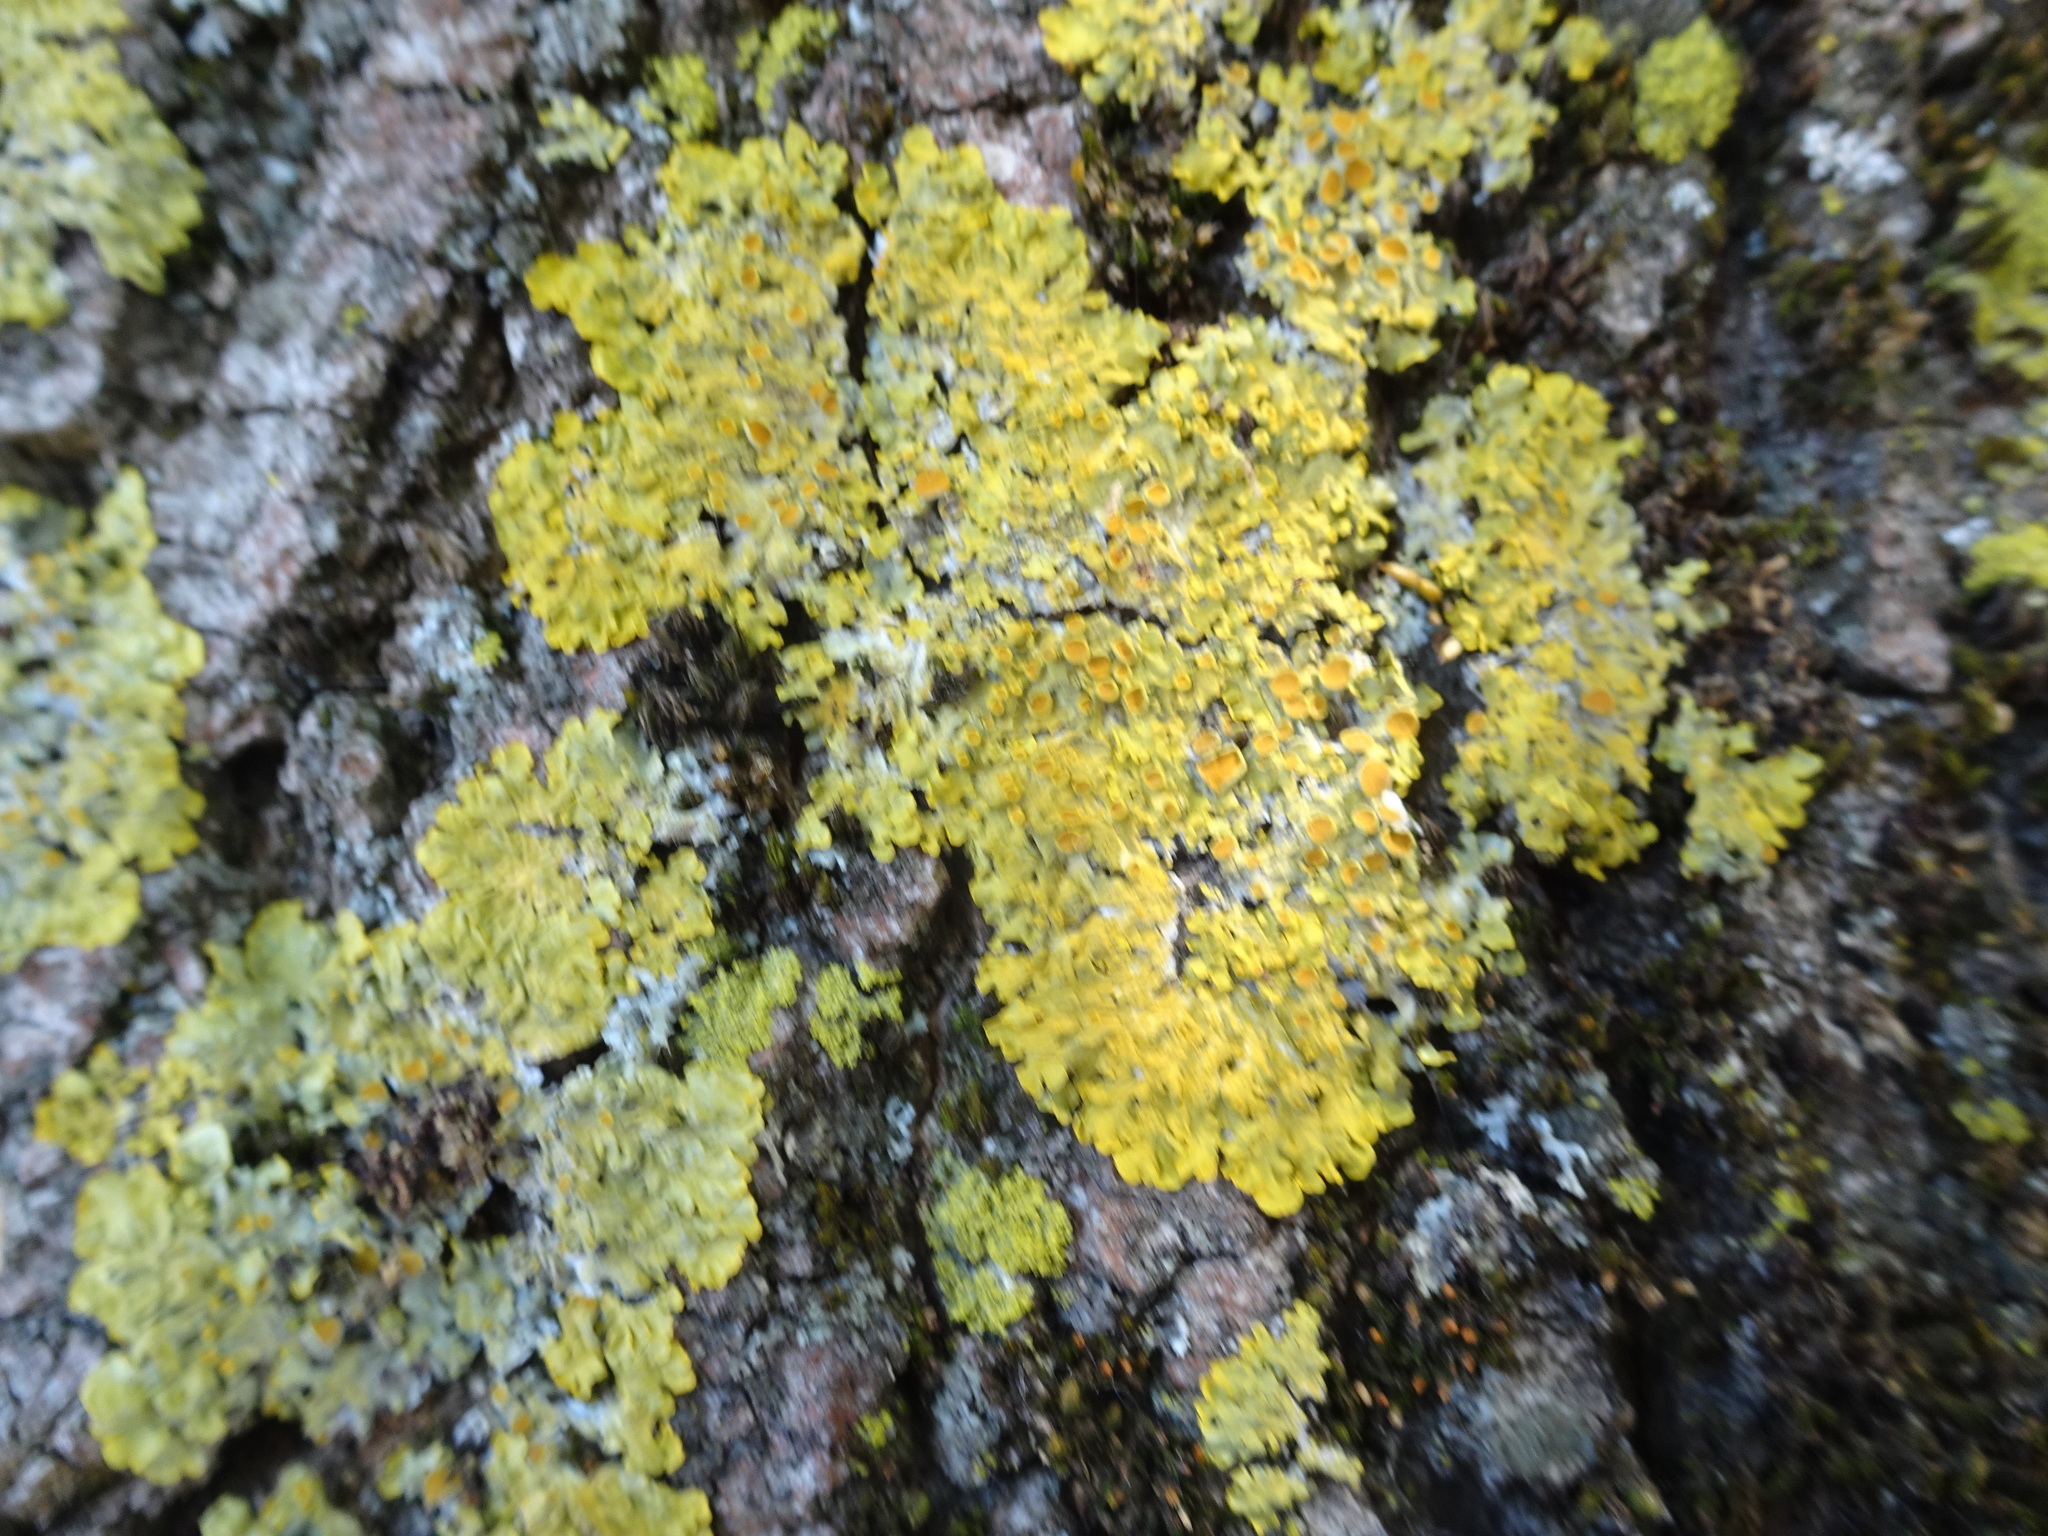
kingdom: Fungi
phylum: Ascomycota
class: Lecanoromycetes
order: Teloschistales
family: Teloschistaceae
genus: Xanthoria
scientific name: Xanthoria parietina
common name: Common orange lichen
